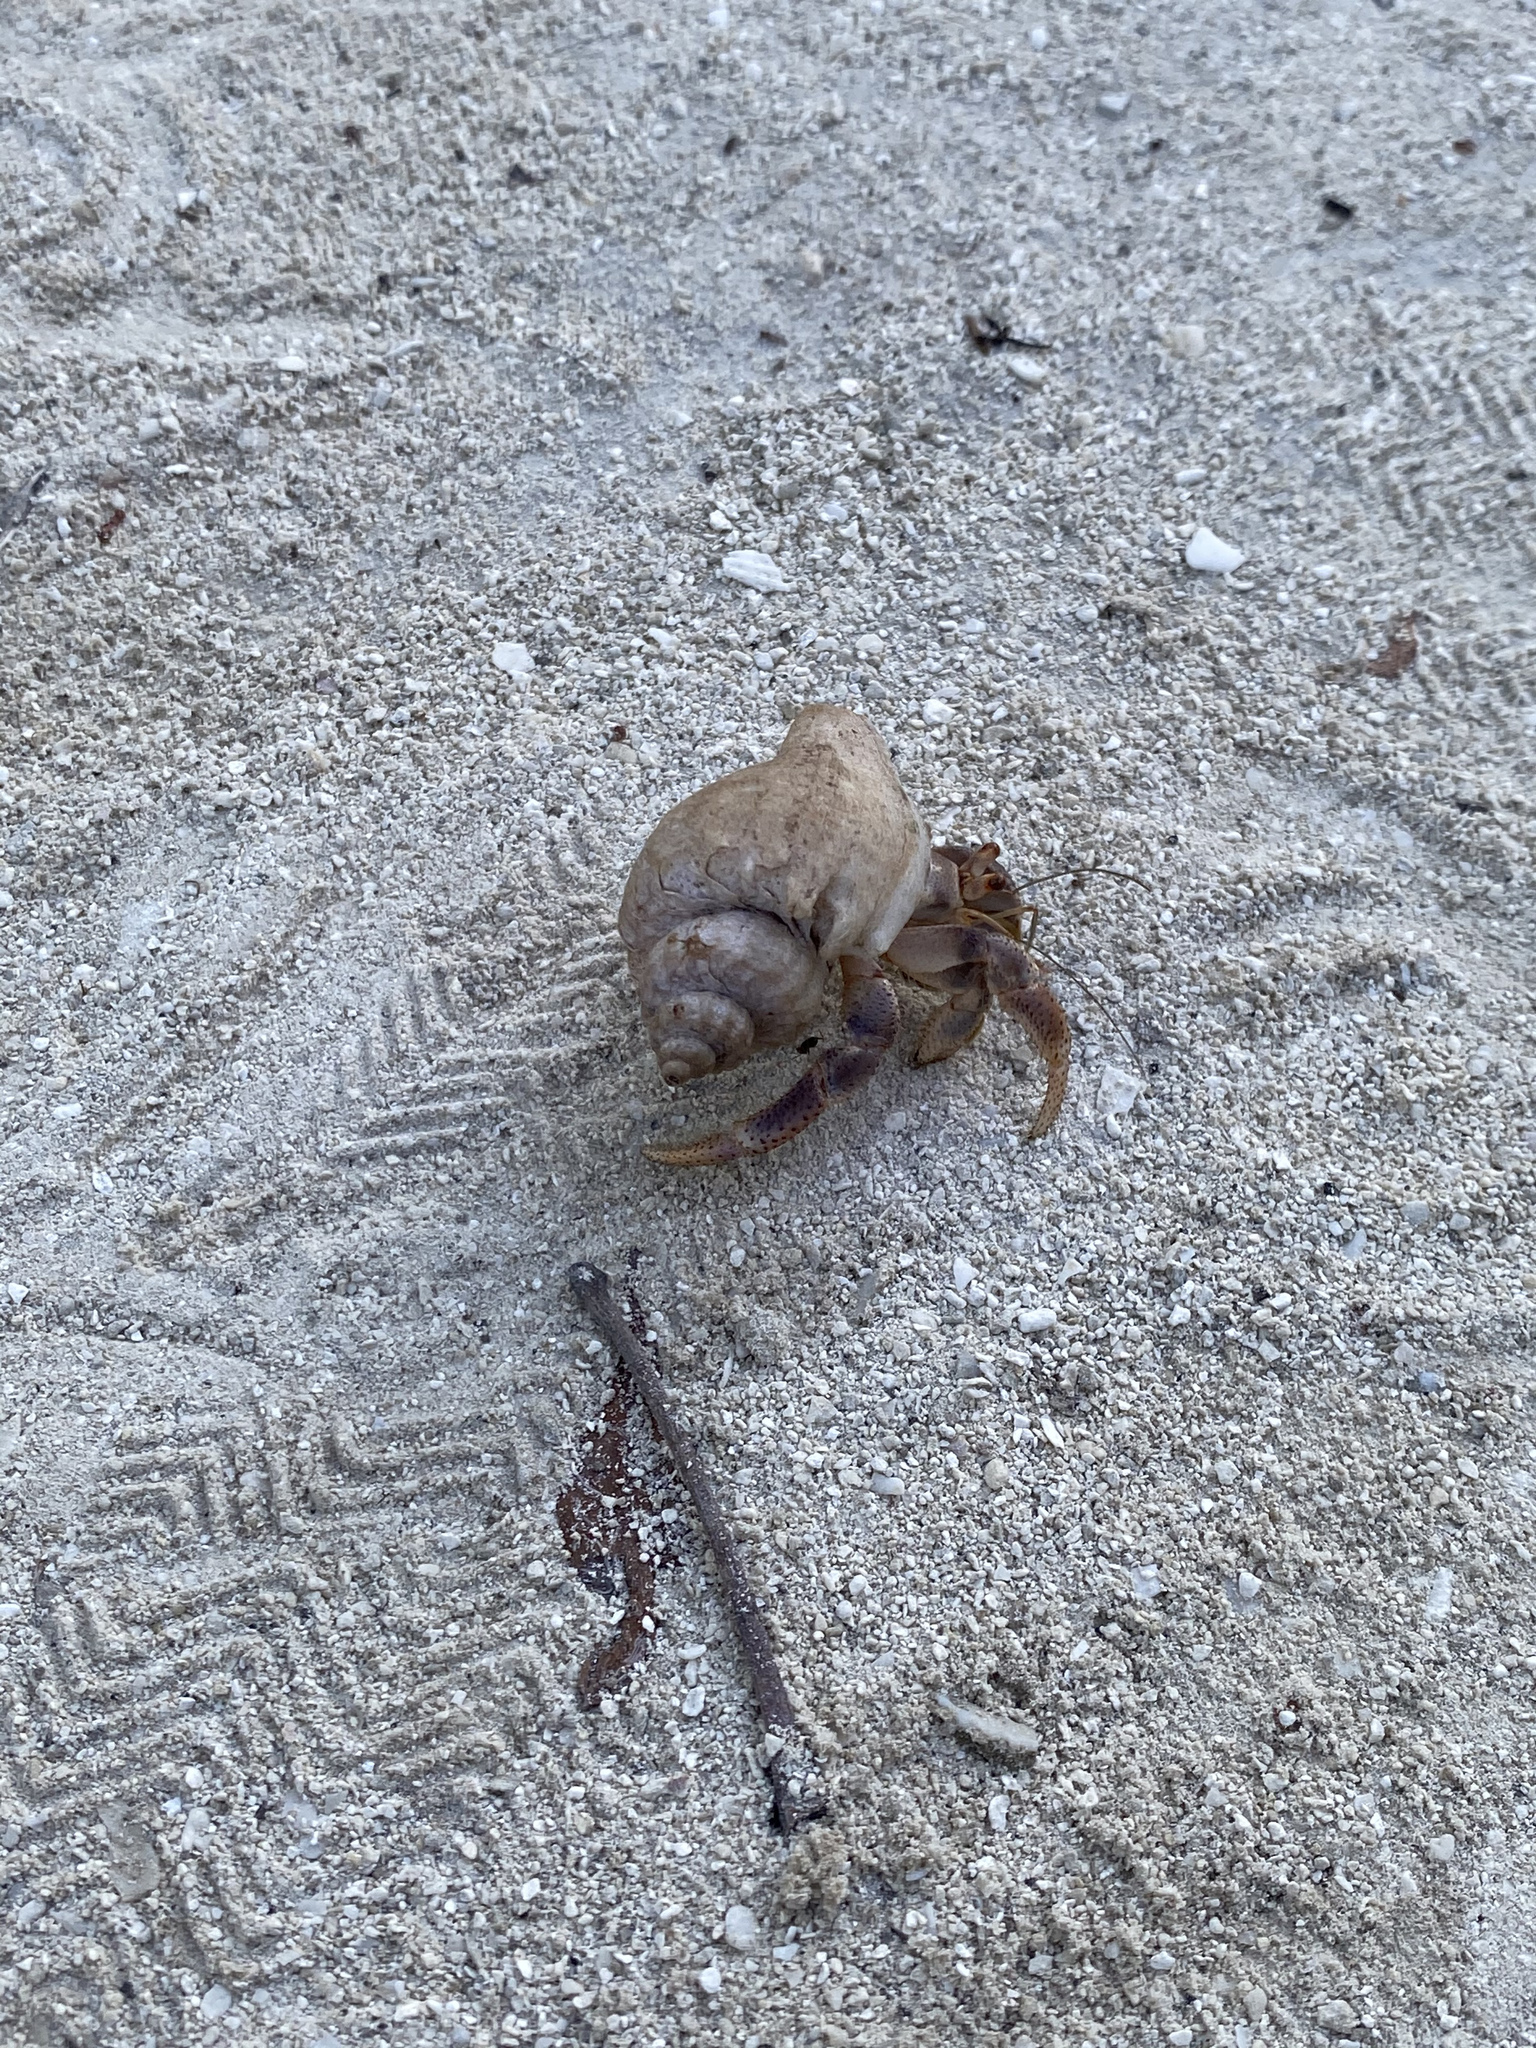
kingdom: Animalia
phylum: Arthropoda
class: Malacostraca
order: Decapoda
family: Coenobitidae
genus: Coenobita
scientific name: Coenobita clypeatus
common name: Caribbean hermit crab
